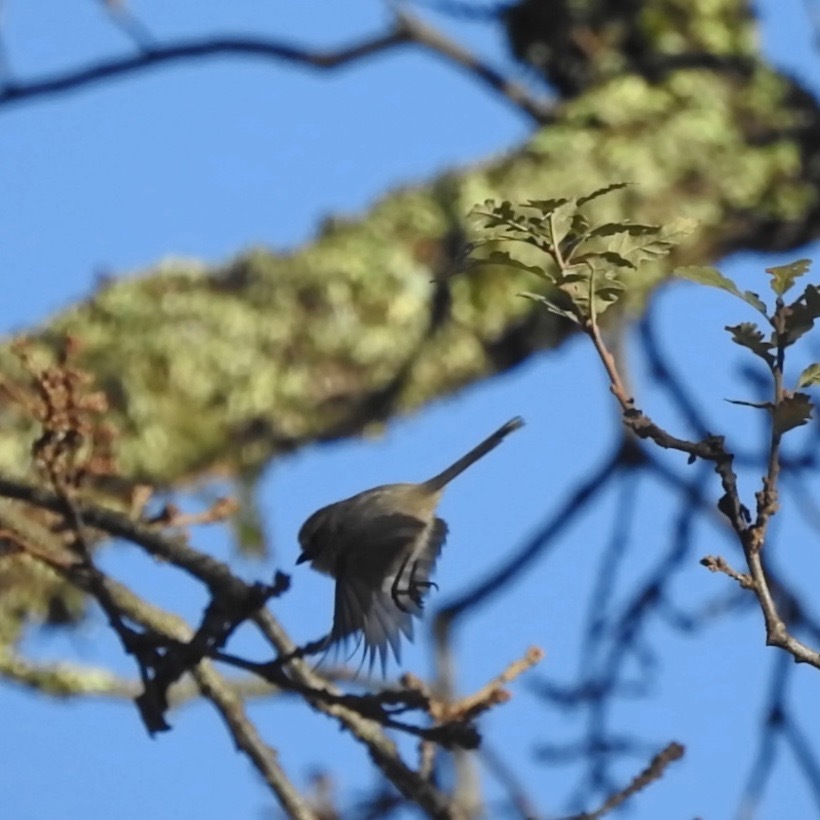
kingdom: Animalia
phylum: Chordata
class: Aves
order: Passeriformes
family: Aegithalidae
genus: Psaltriparus
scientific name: Psaltriparus minimus
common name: American bushtit
